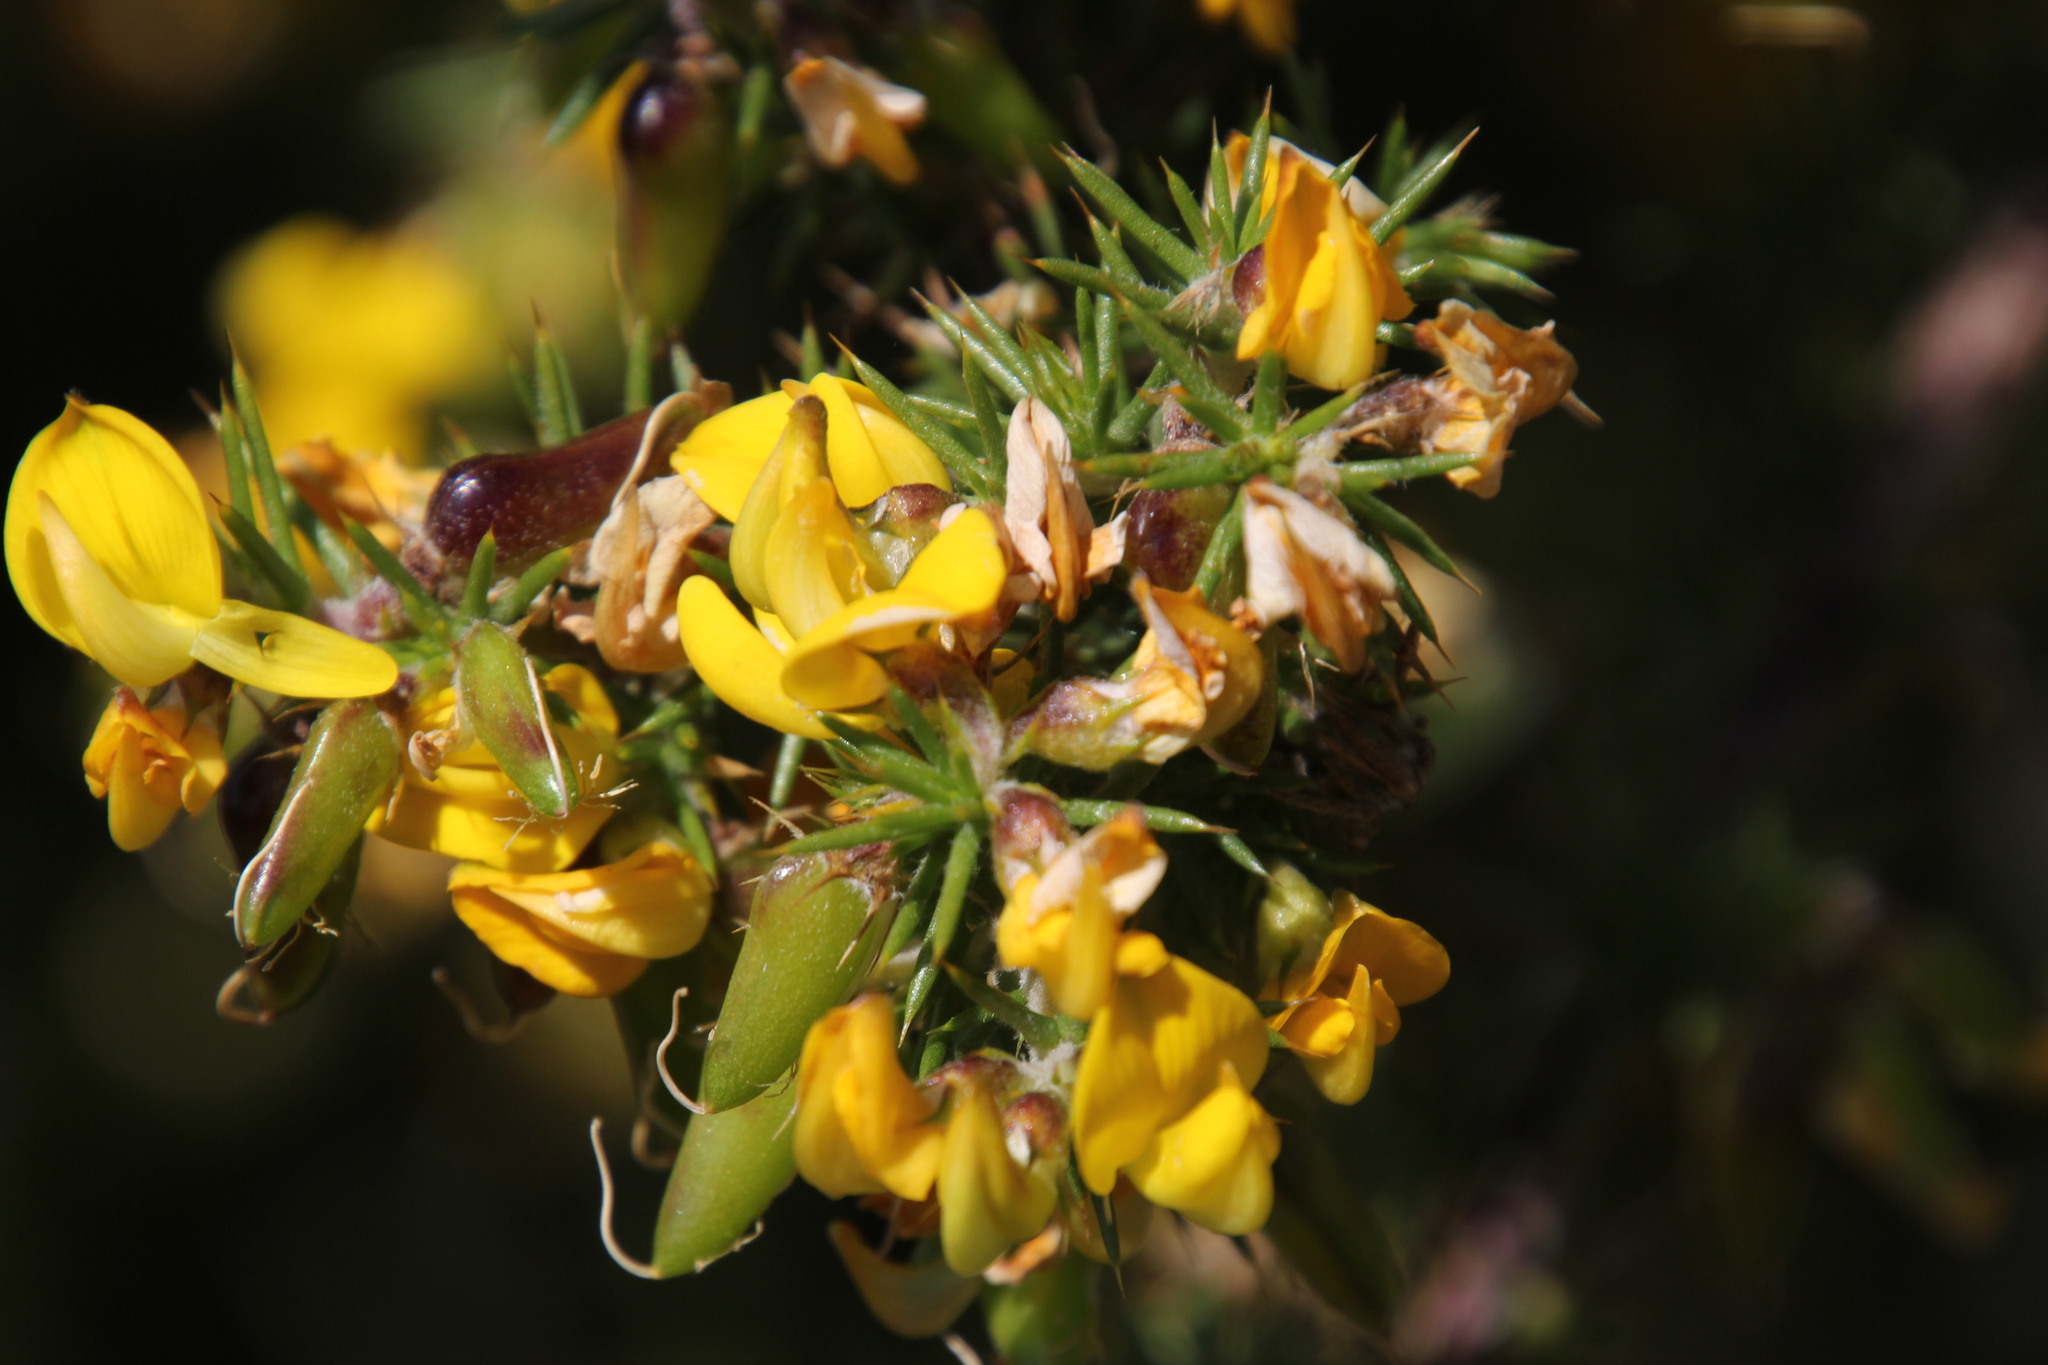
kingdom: Plantae
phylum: Tracheophyta
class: Magnoliopsida
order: Fabales
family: Fabaceae
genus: Aspalathus
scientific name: Aspalathus astroites
